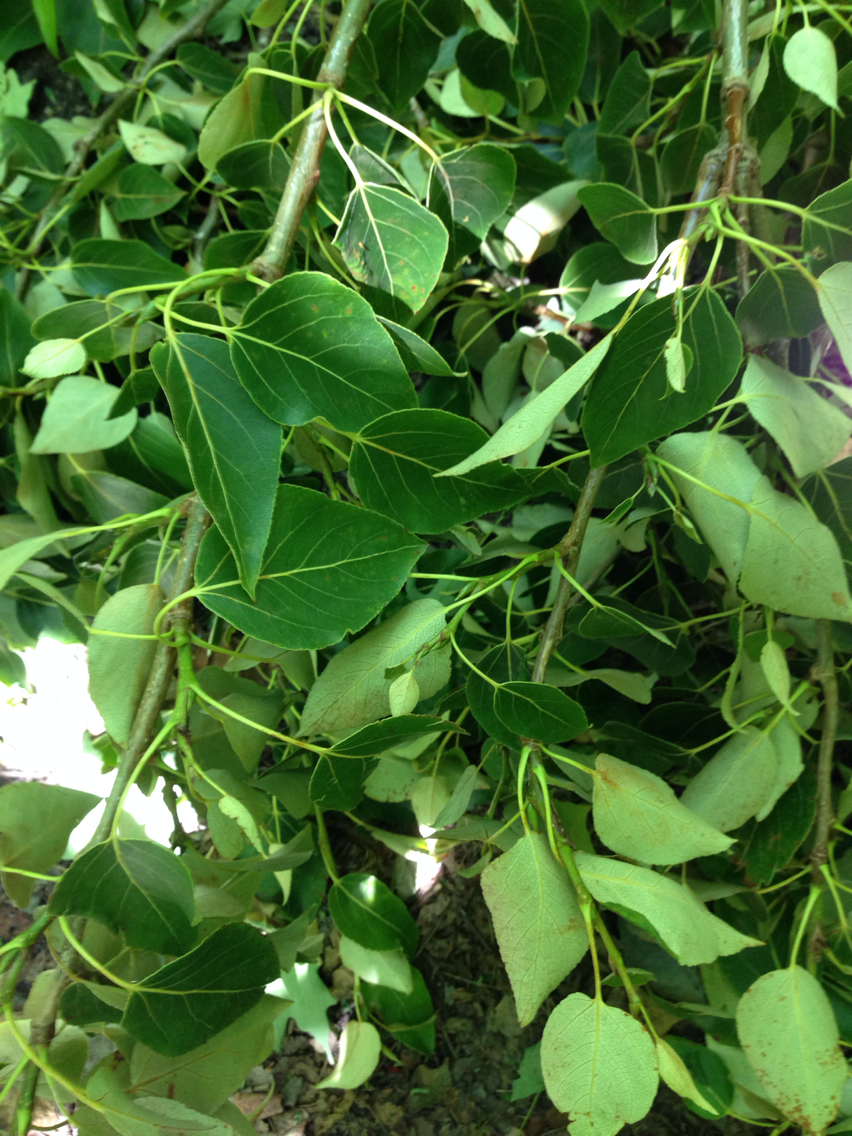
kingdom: Plantae
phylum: Tracheophyta
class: Magnoliopsida
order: Malpighiales
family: Salicaceae
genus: Populus
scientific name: Populus balsamifera
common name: Balsam poplar
